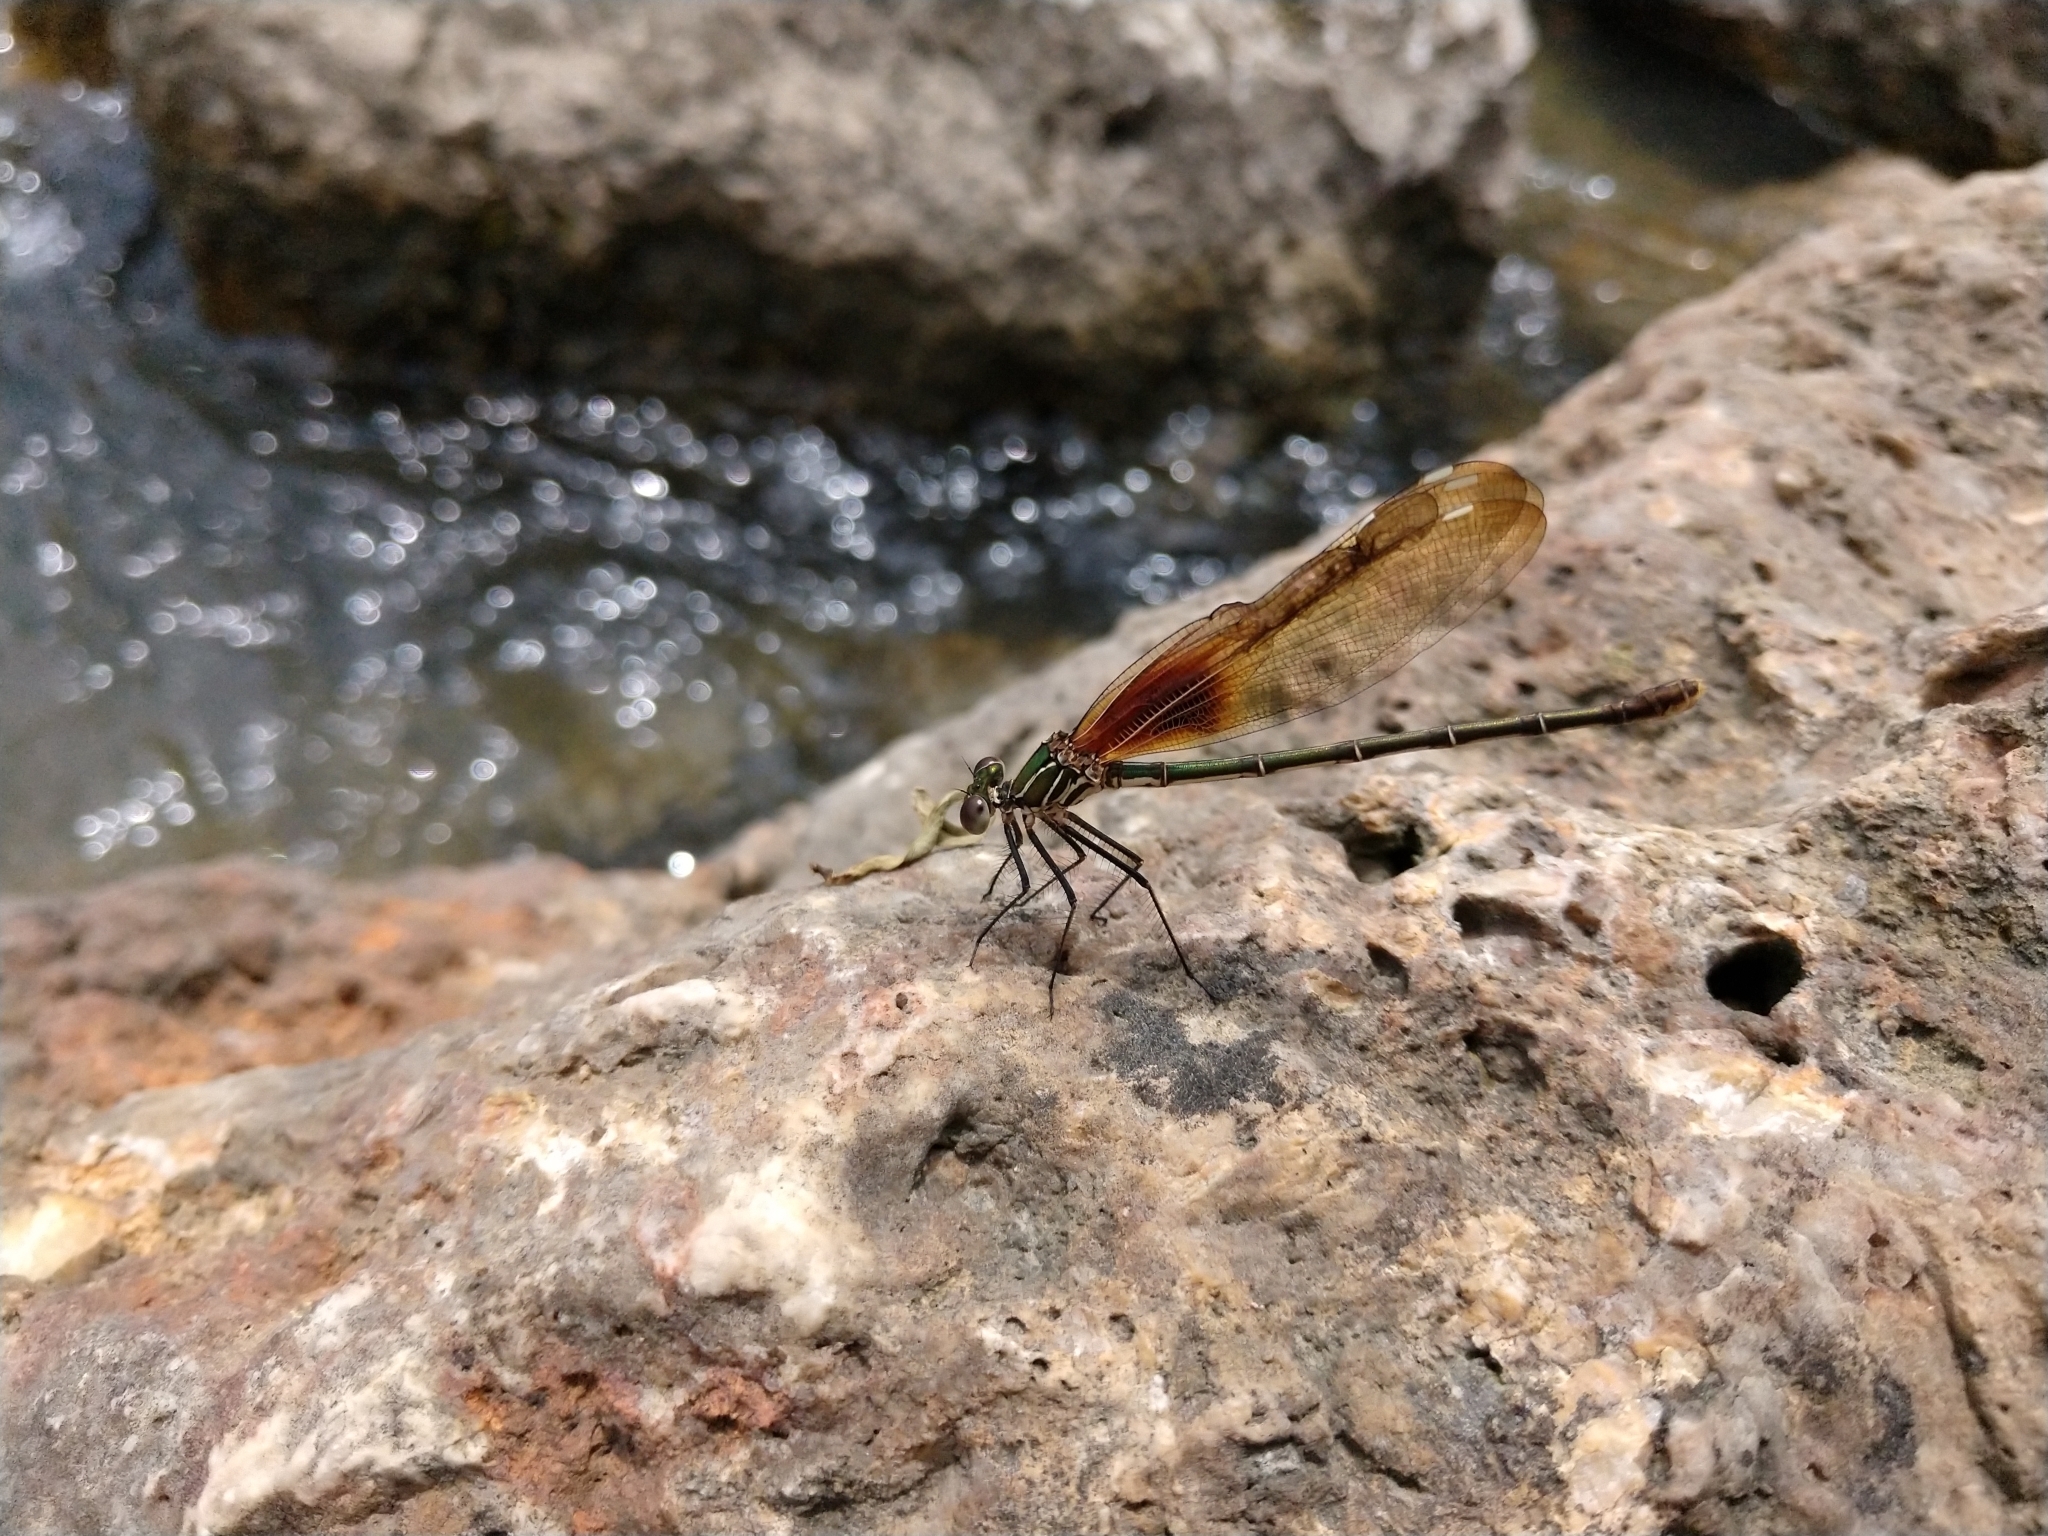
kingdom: Animalia
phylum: Arthropoda
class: Insecta
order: Odonata
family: Calopterygidae
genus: Hetaerina
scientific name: Hetaerina americana
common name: American rubyspot
